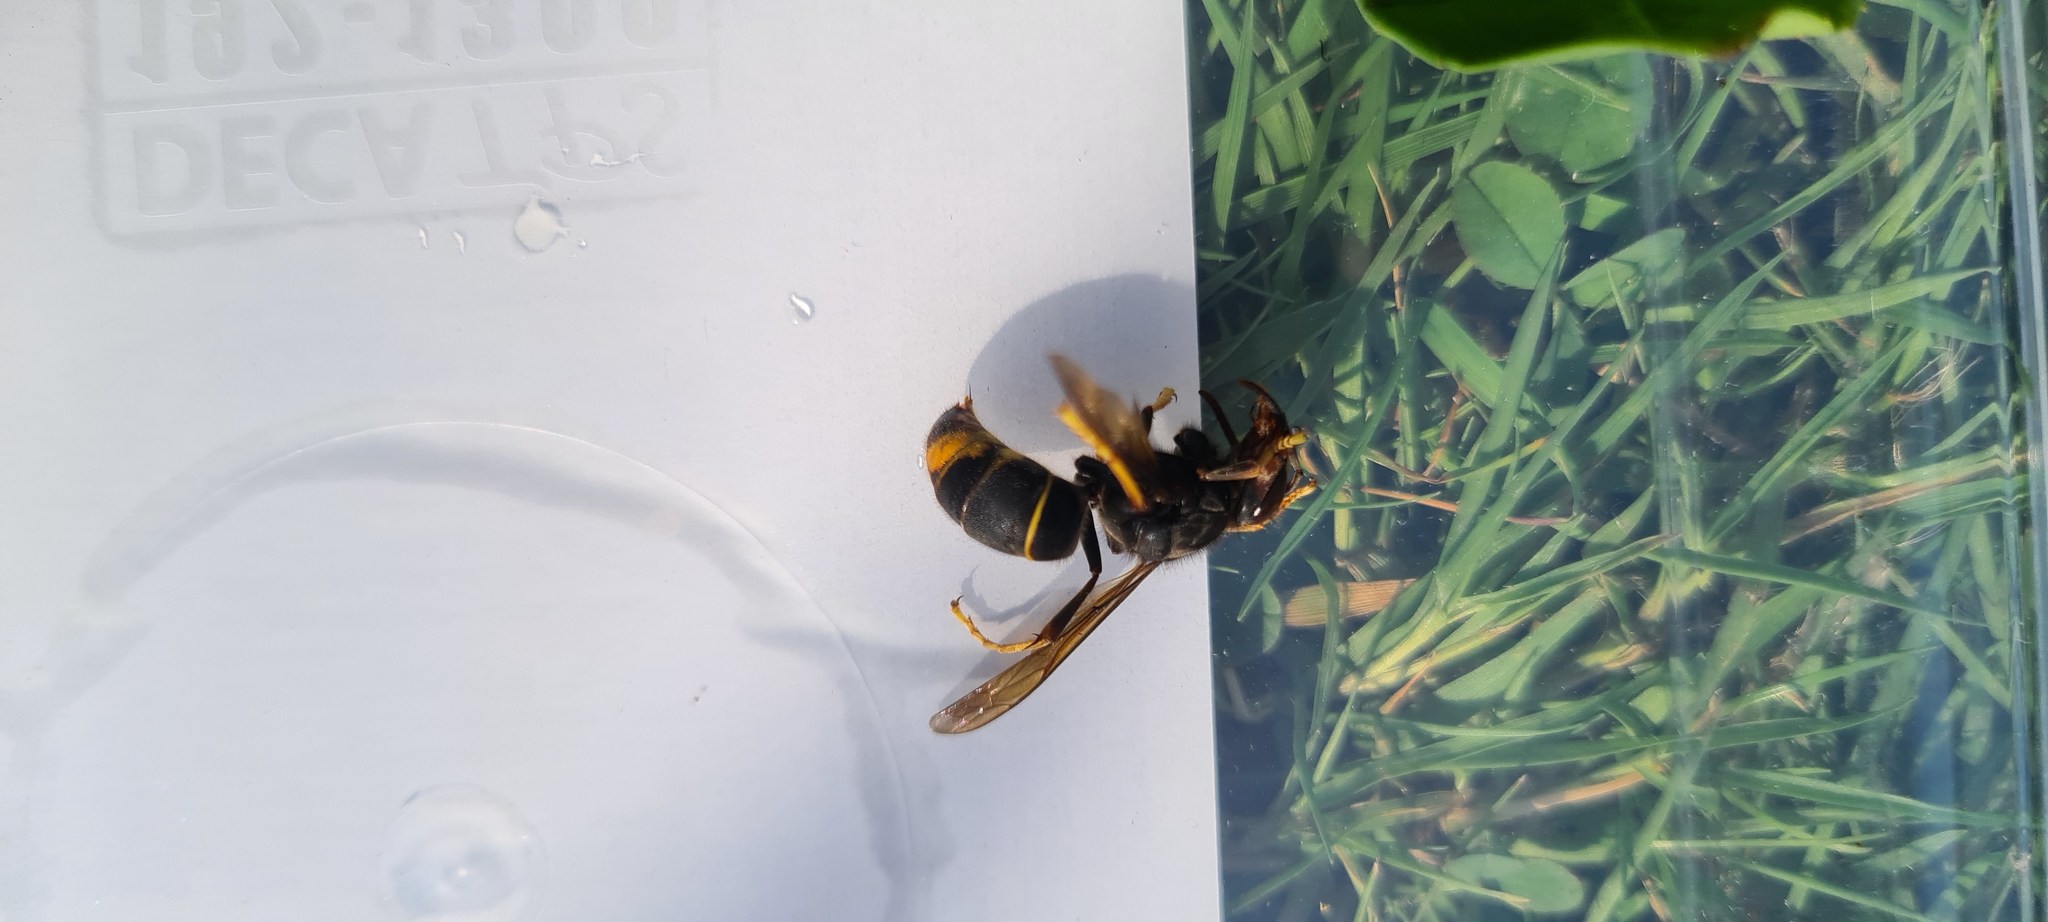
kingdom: Animalia
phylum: Arthropoda
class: Insecta
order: Hymenoptera
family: Vespidae
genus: Vespa
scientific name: Vespa velutina
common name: Asian hornet
